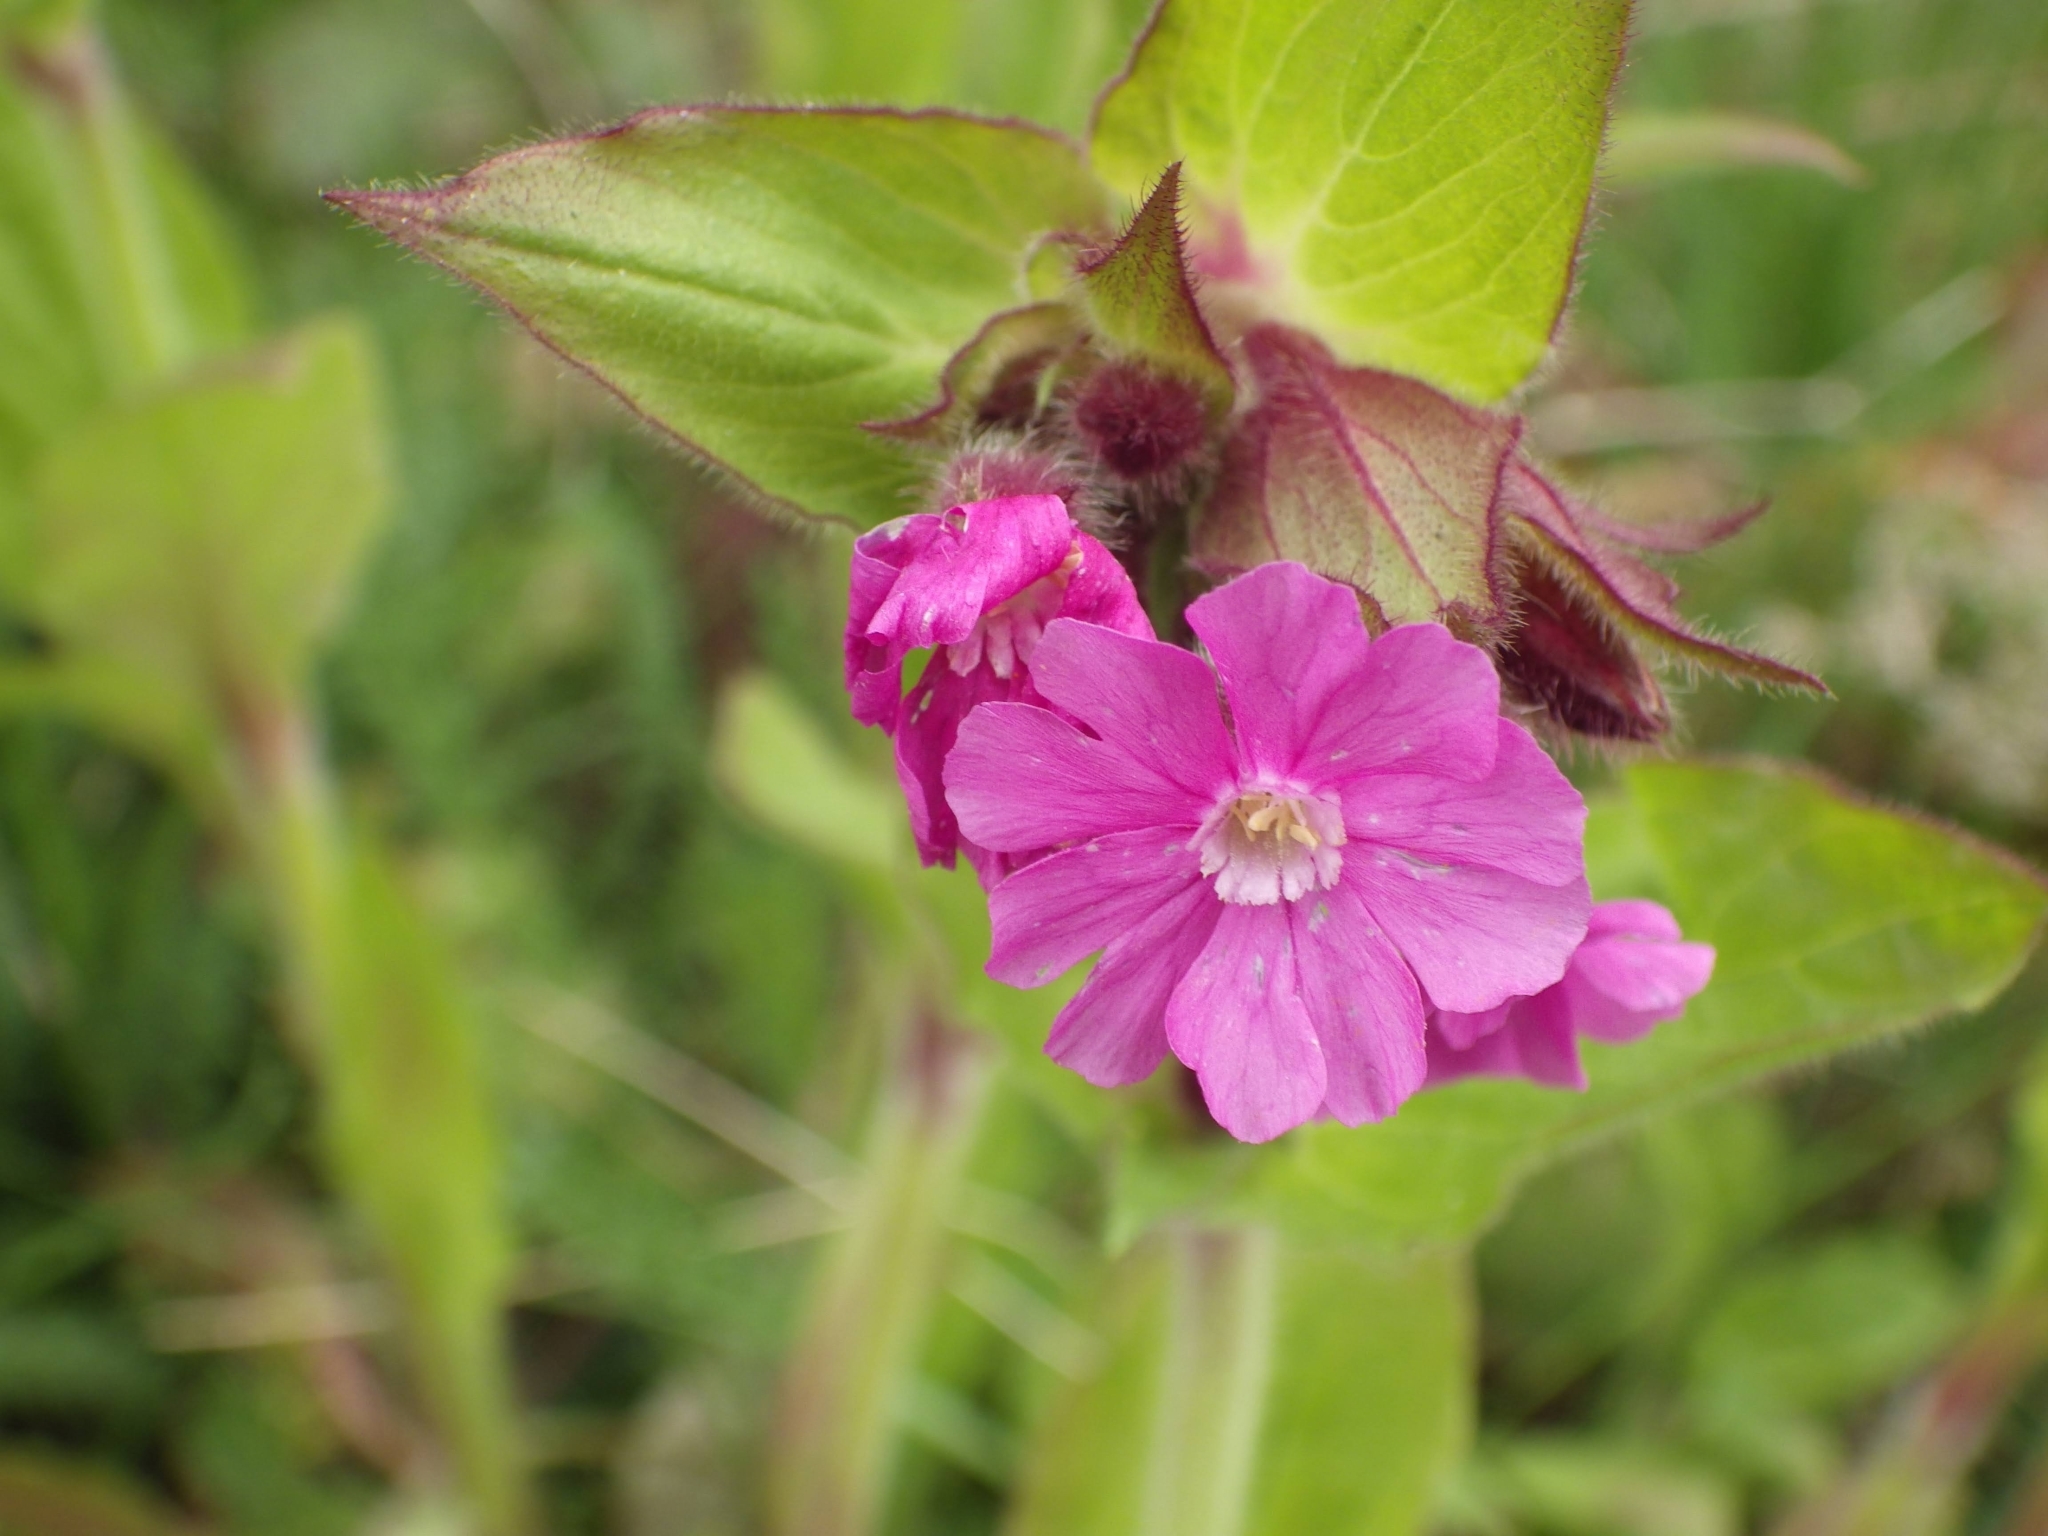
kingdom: Plantae
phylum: Tracheophyta
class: Magnoliopsida
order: Caryophyllales
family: Caryophyllaceae
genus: Silene
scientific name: Silene dioica
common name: Red campion
